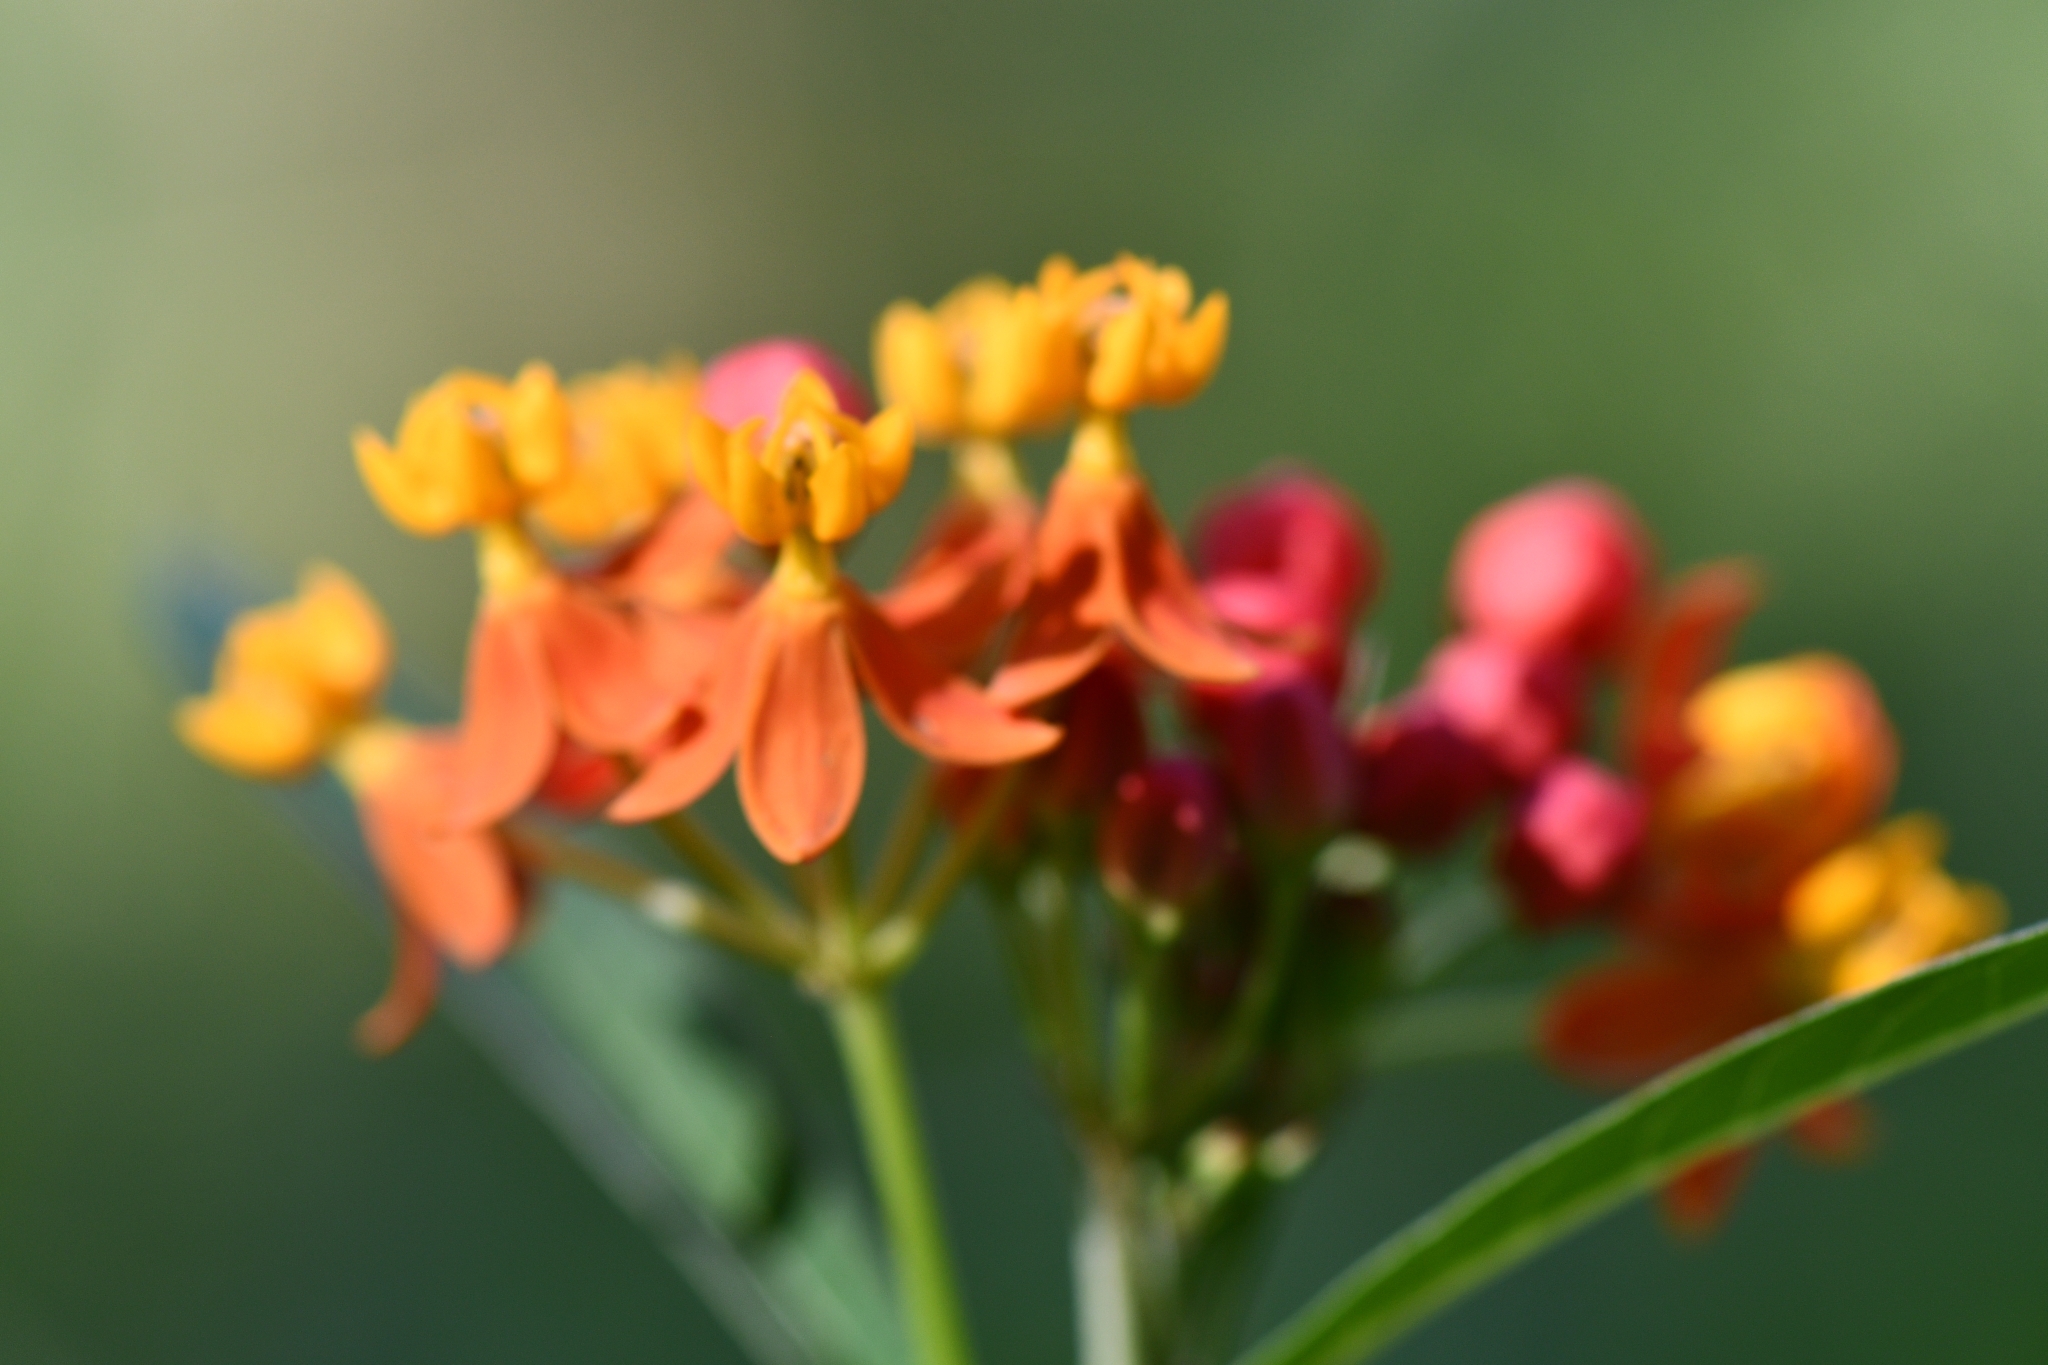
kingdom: Plantae
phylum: Tracheophyta
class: Magnoliopsida
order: Gentianales
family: Apocynaceae
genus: Asclepias
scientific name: Asclepias curassavica
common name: Bloodflower
